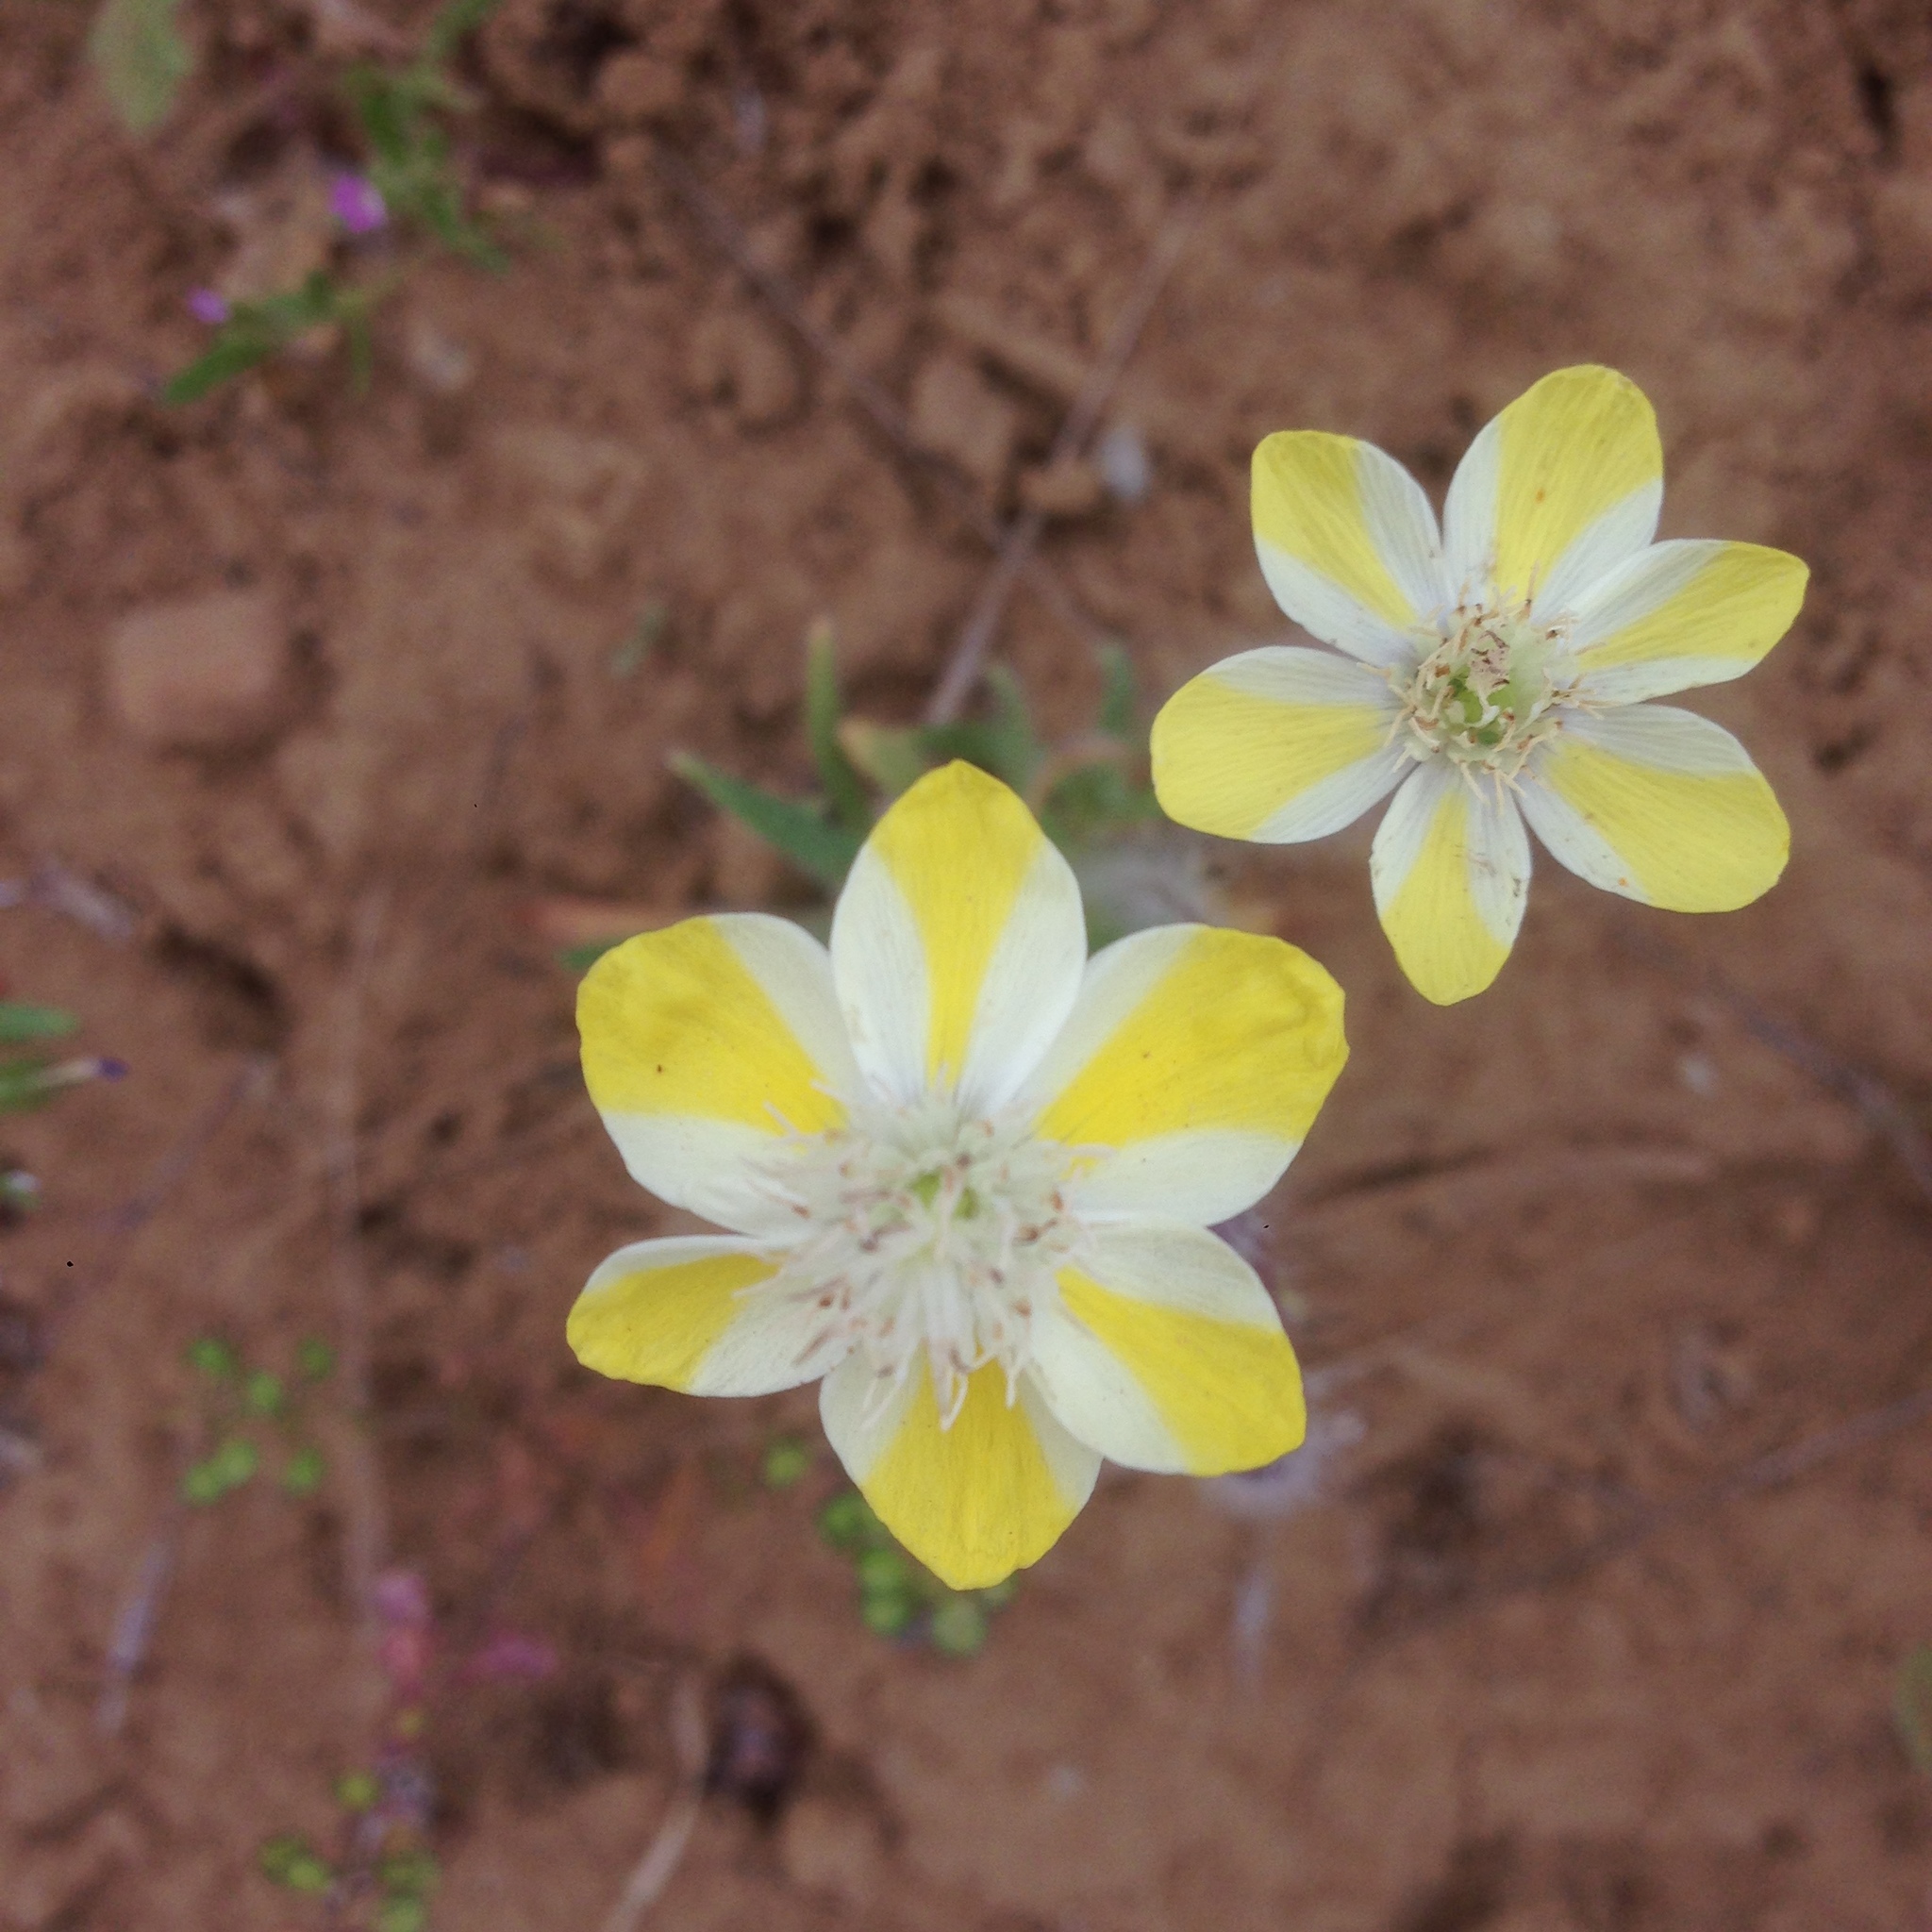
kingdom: Plantae
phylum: Tracheophyta
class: Magnoliopsida
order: Ranunculales
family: Papaveraceae
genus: Platystemon
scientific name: Platystemon californicus
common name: Cream-cups
